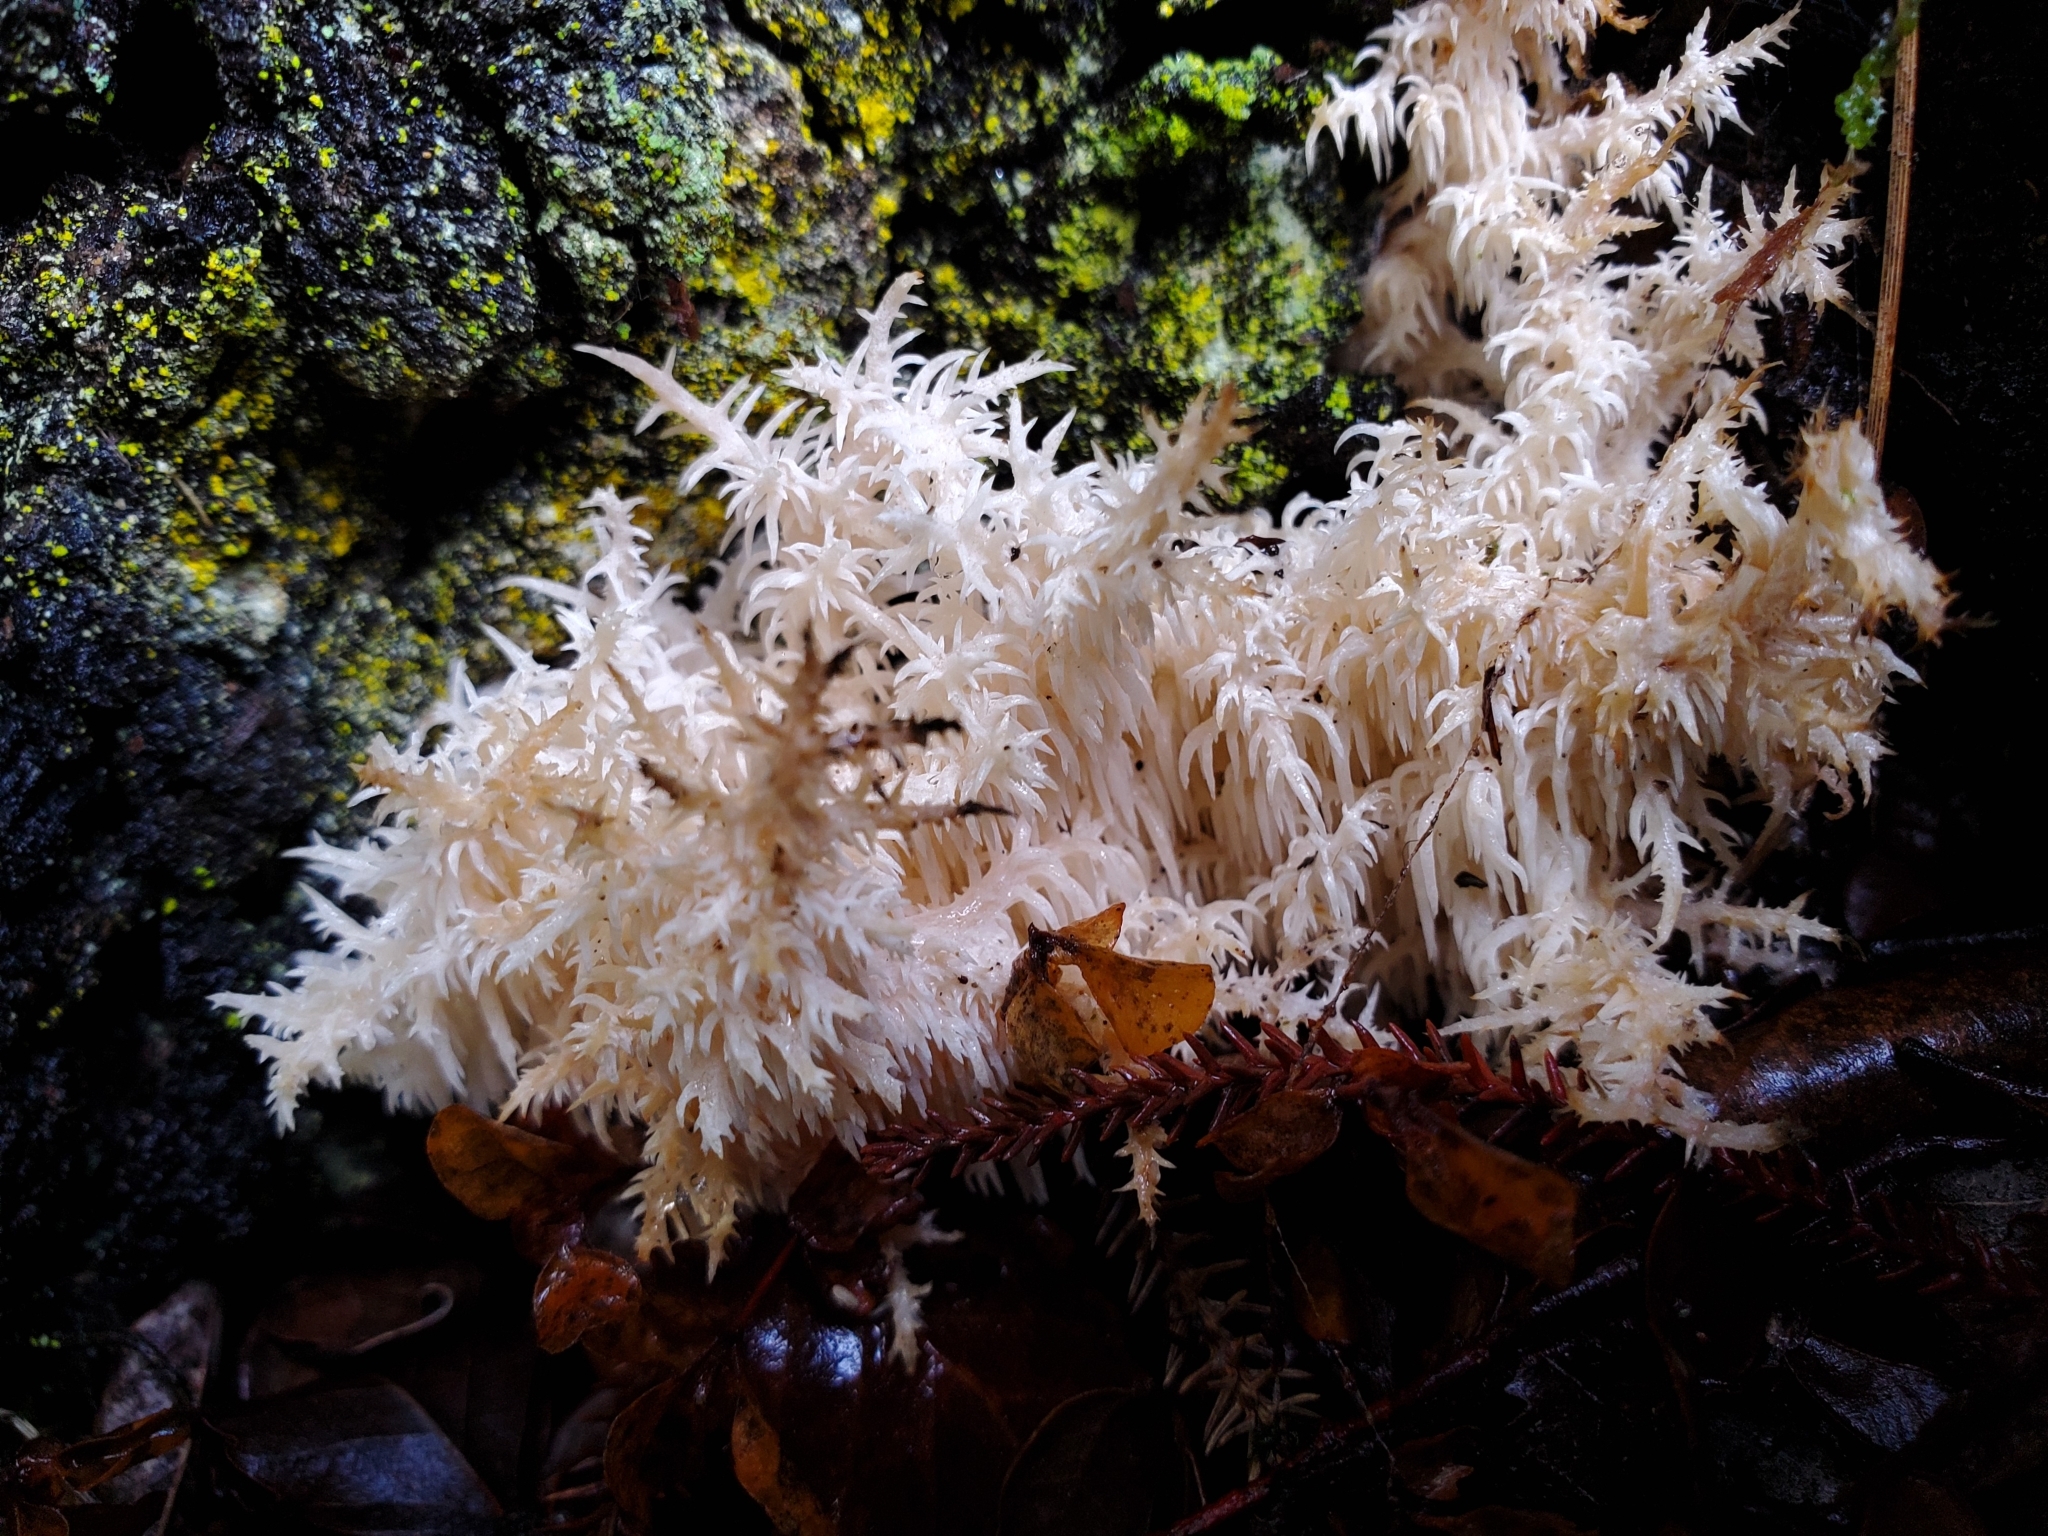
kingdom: Fungi
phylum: Basidiomycota
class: Agaricomycetes
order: Russulales
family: Hericiaceae
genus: Hericium
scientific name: Hericium novae-zealandiae
